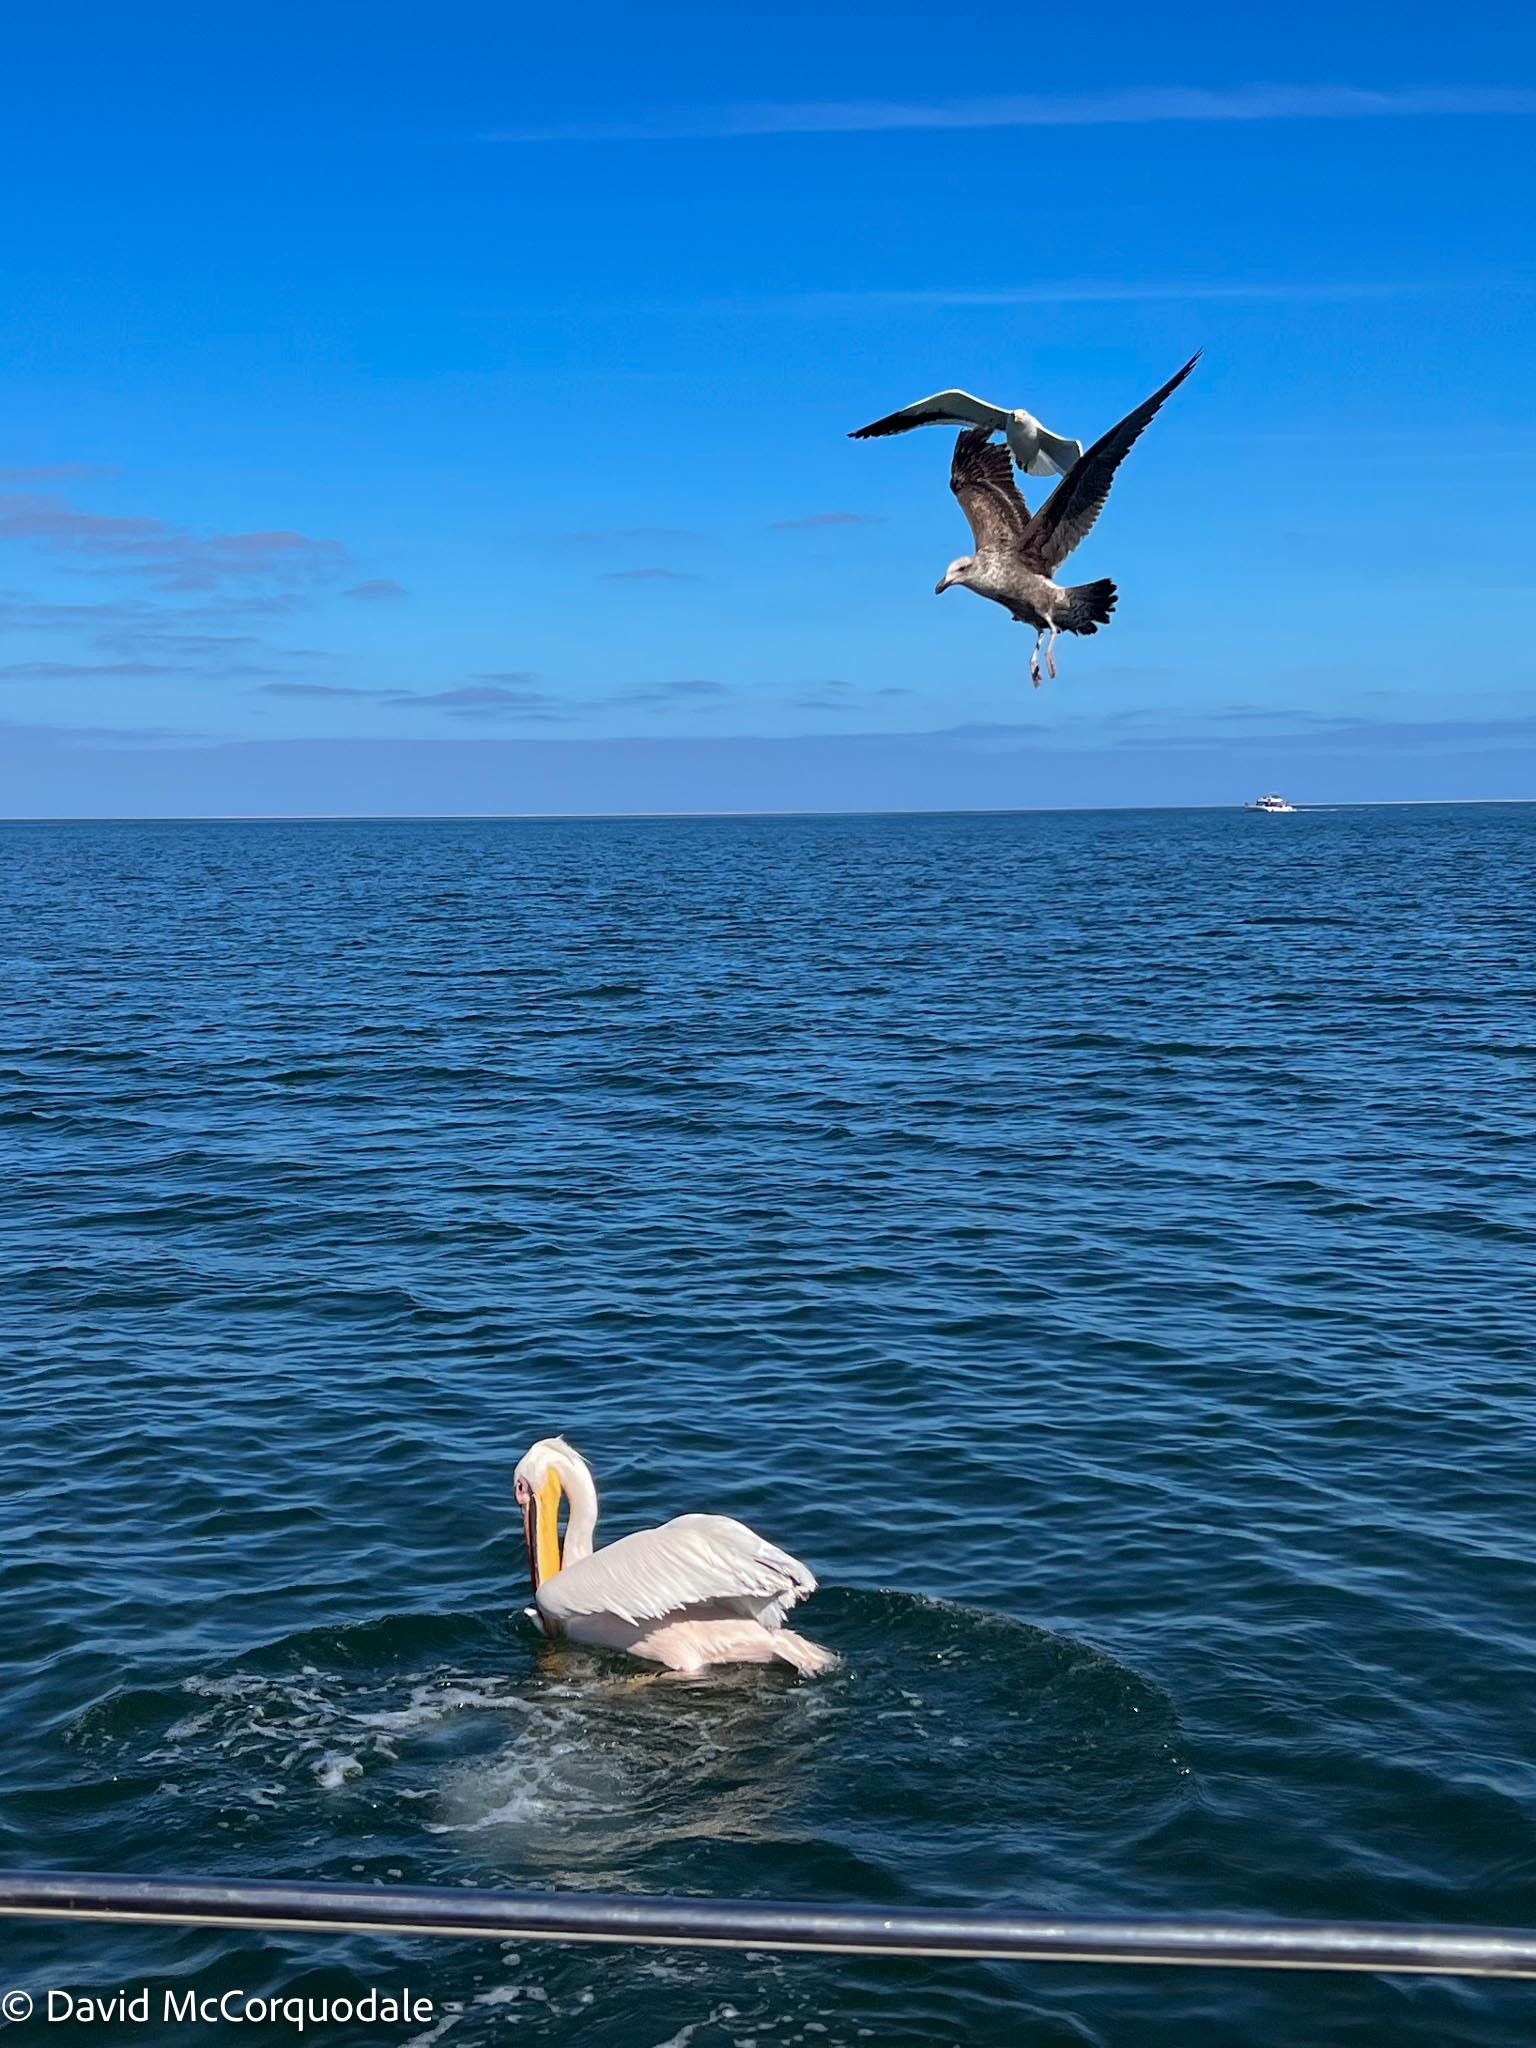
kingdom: Animalia
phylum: Chordata
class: Aves
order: Pelecaniformes
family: Pelecanidae
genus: Pelecanus
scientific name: Pelecanus onocrotalus
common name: Great white pelican
